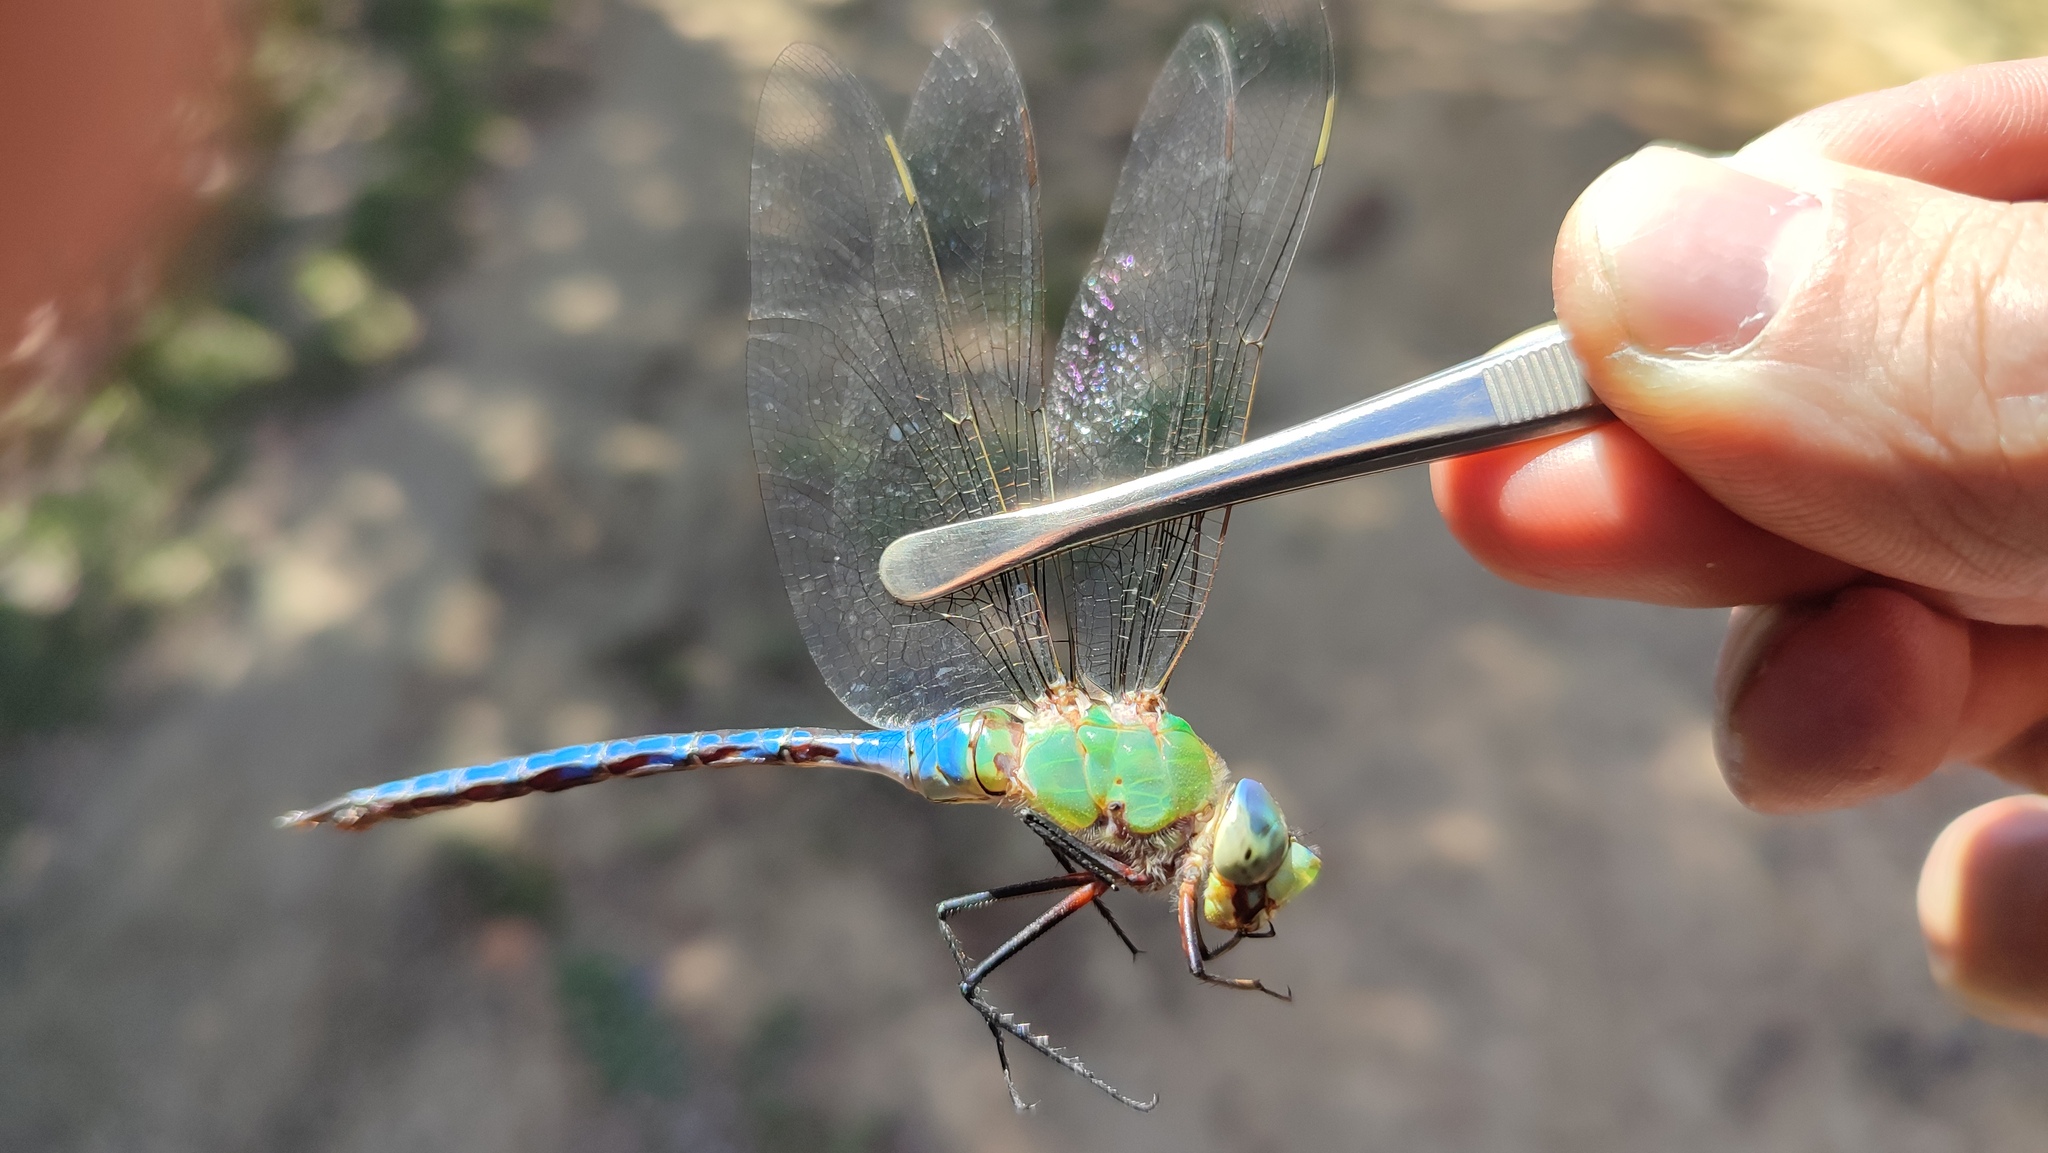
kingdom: Animalia
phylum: Arthropoda
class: Insecta
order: Odonata
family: Aeshnidae
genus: Anax
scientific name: Anax imperator
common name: Emperor dragonfly
